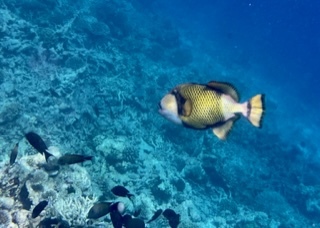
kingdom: Animalia
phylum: Chordata
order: Tetraodontiformes
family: Balistidae
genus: Balistoides
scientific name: Balistoides viridescens
